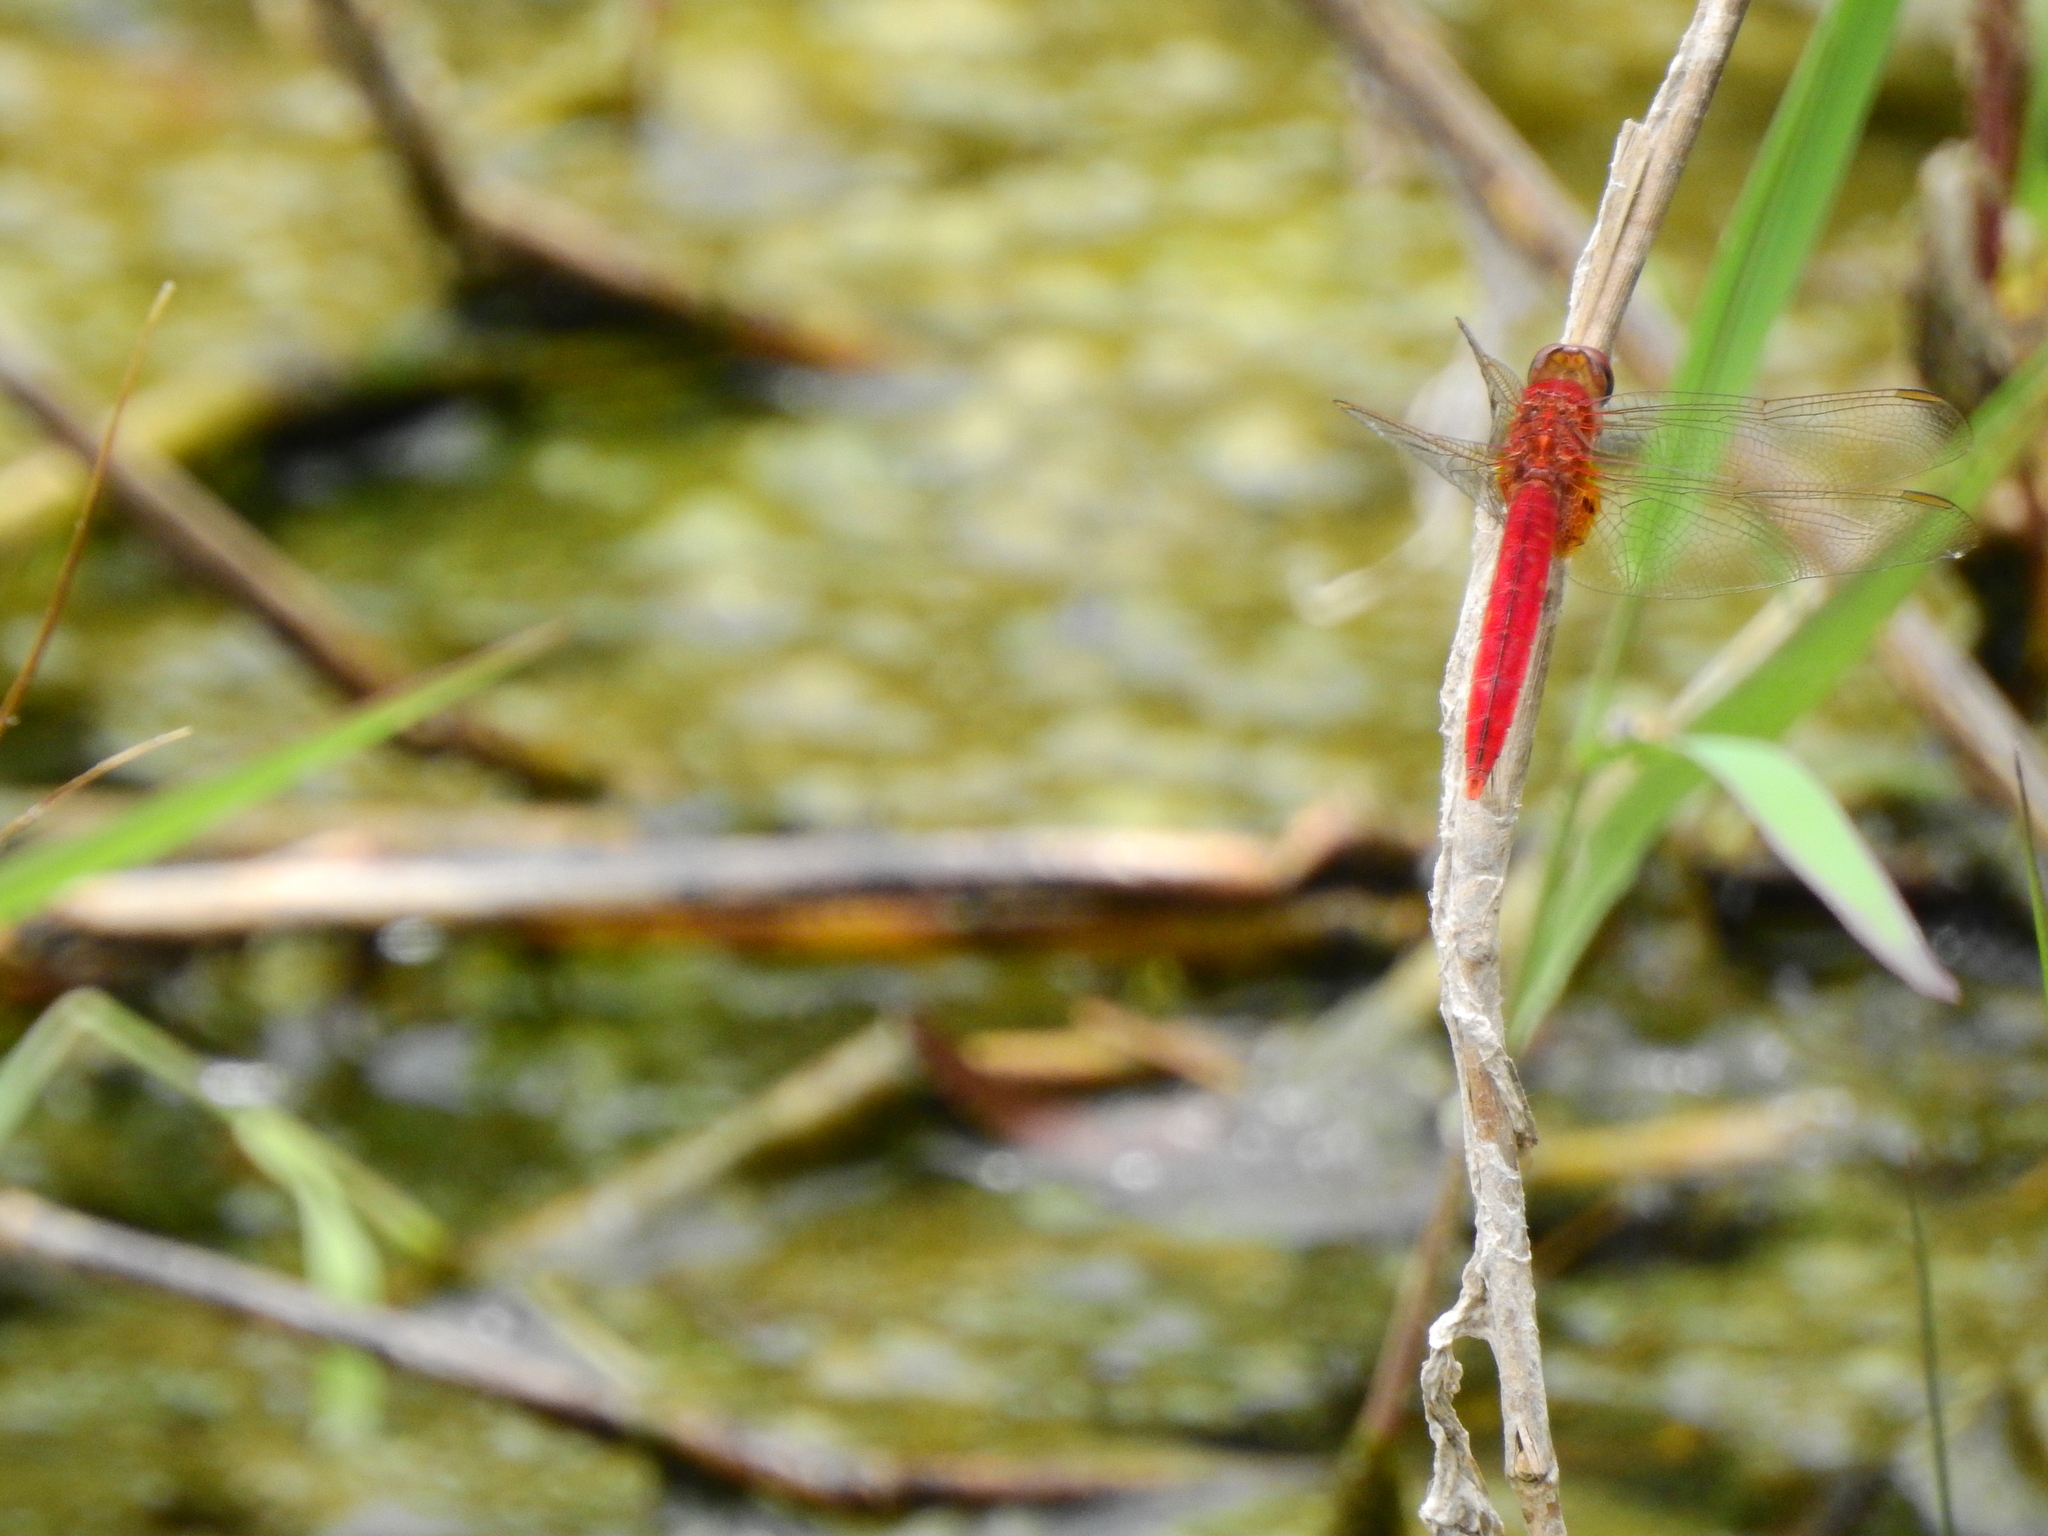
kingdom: Animalia
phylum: Arthropoda
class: Insecta
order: Odonata
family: Libellulidae
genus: Crocothemis
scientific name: Crocothemis servilia
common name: Scarlet skimmer
